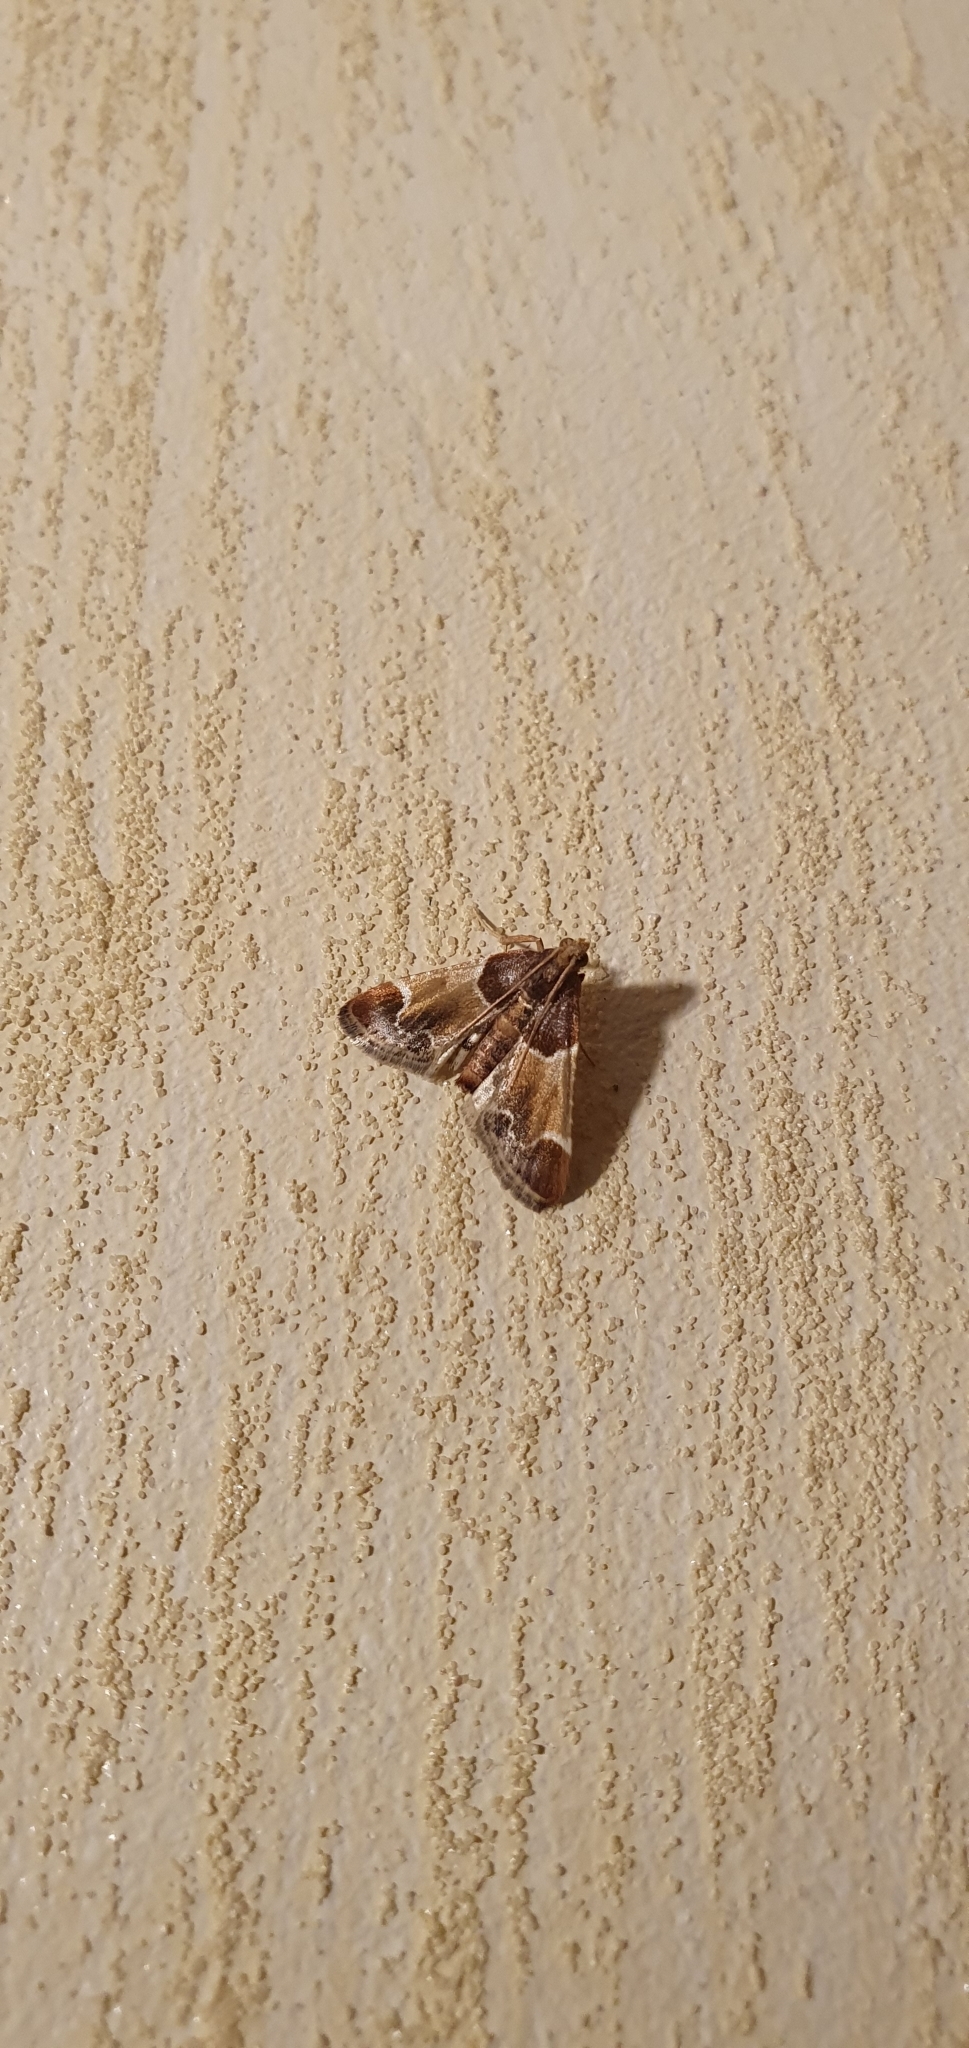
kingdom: Animalia
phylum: Arthropoda
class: Insecta
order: Lepidoptera
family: Pyralidae
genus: Pyralis
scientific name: Pyralis farinalis
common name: Meal moth
